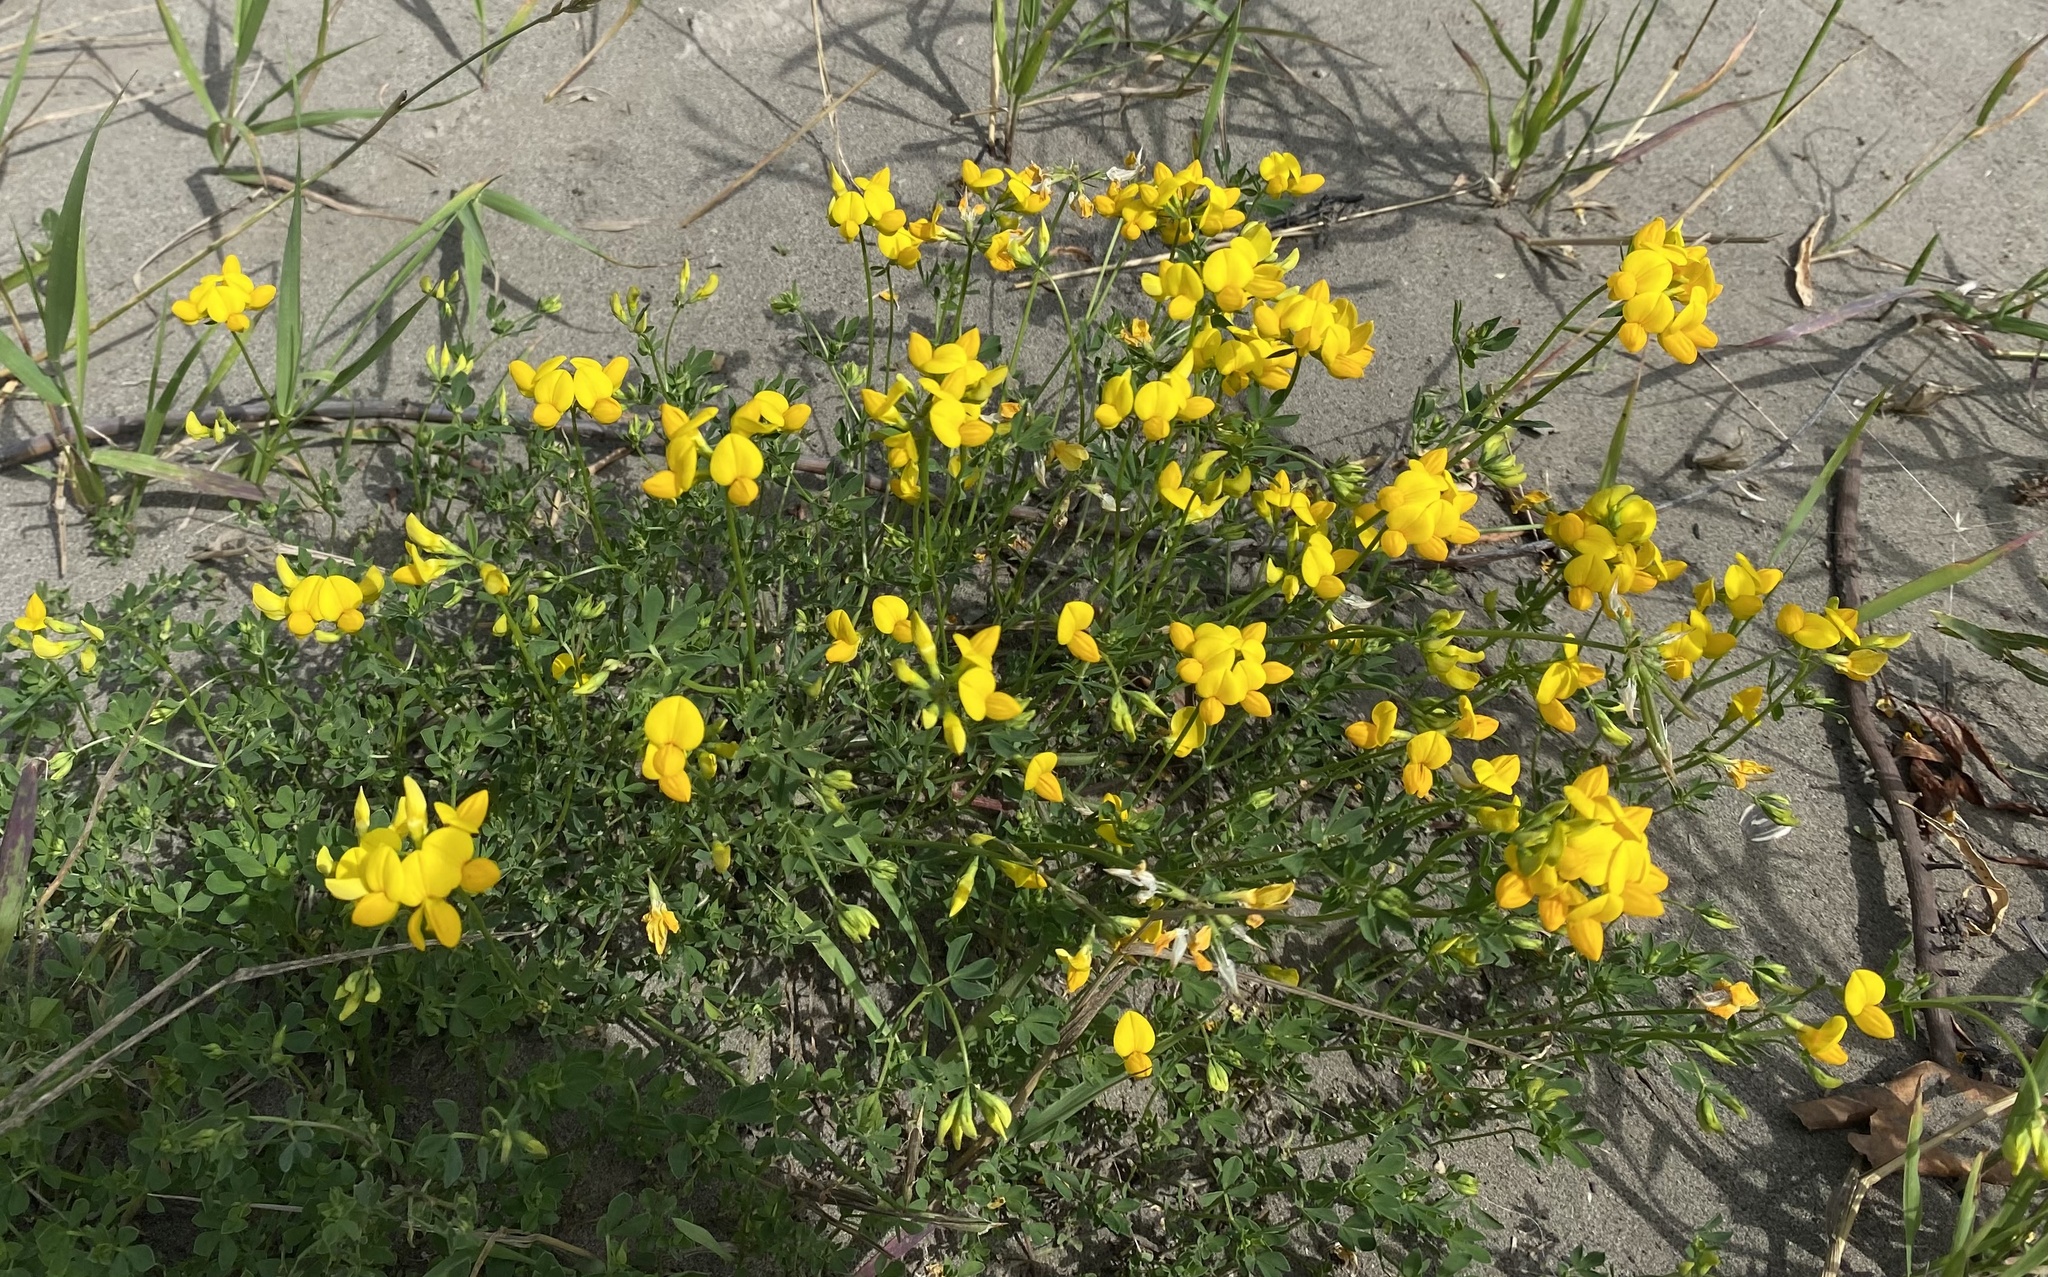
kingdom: Plantae
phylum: Tracheophyta
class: Magnoliopsida
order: Fabales
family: Fabaceae
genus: Lotus
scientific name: Lotus corniculatus
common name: Common bird's-foot-trefoil
